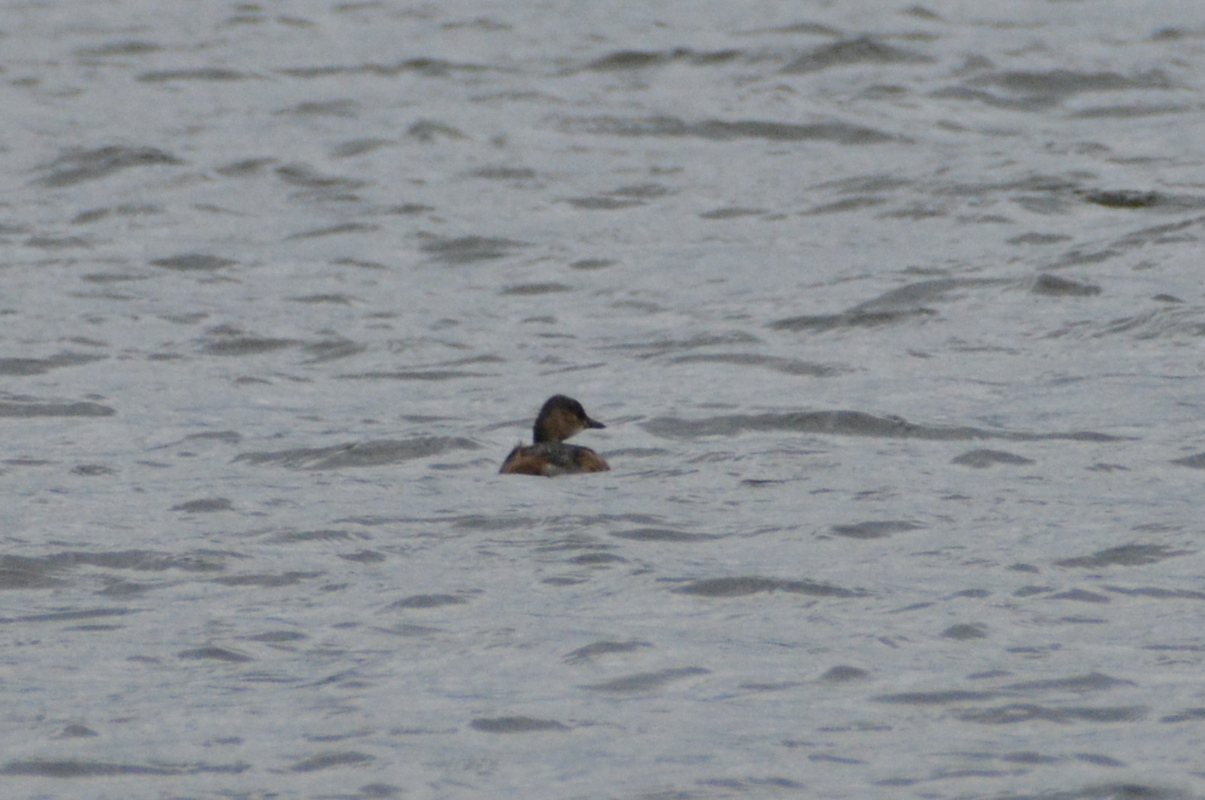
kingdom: Animalia
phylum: Chordata
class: Aves
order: Podicipediformes
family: Podicipedidae
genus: Tachybaptus
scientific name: Tachybaptus ruficollis
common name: Little grebe
